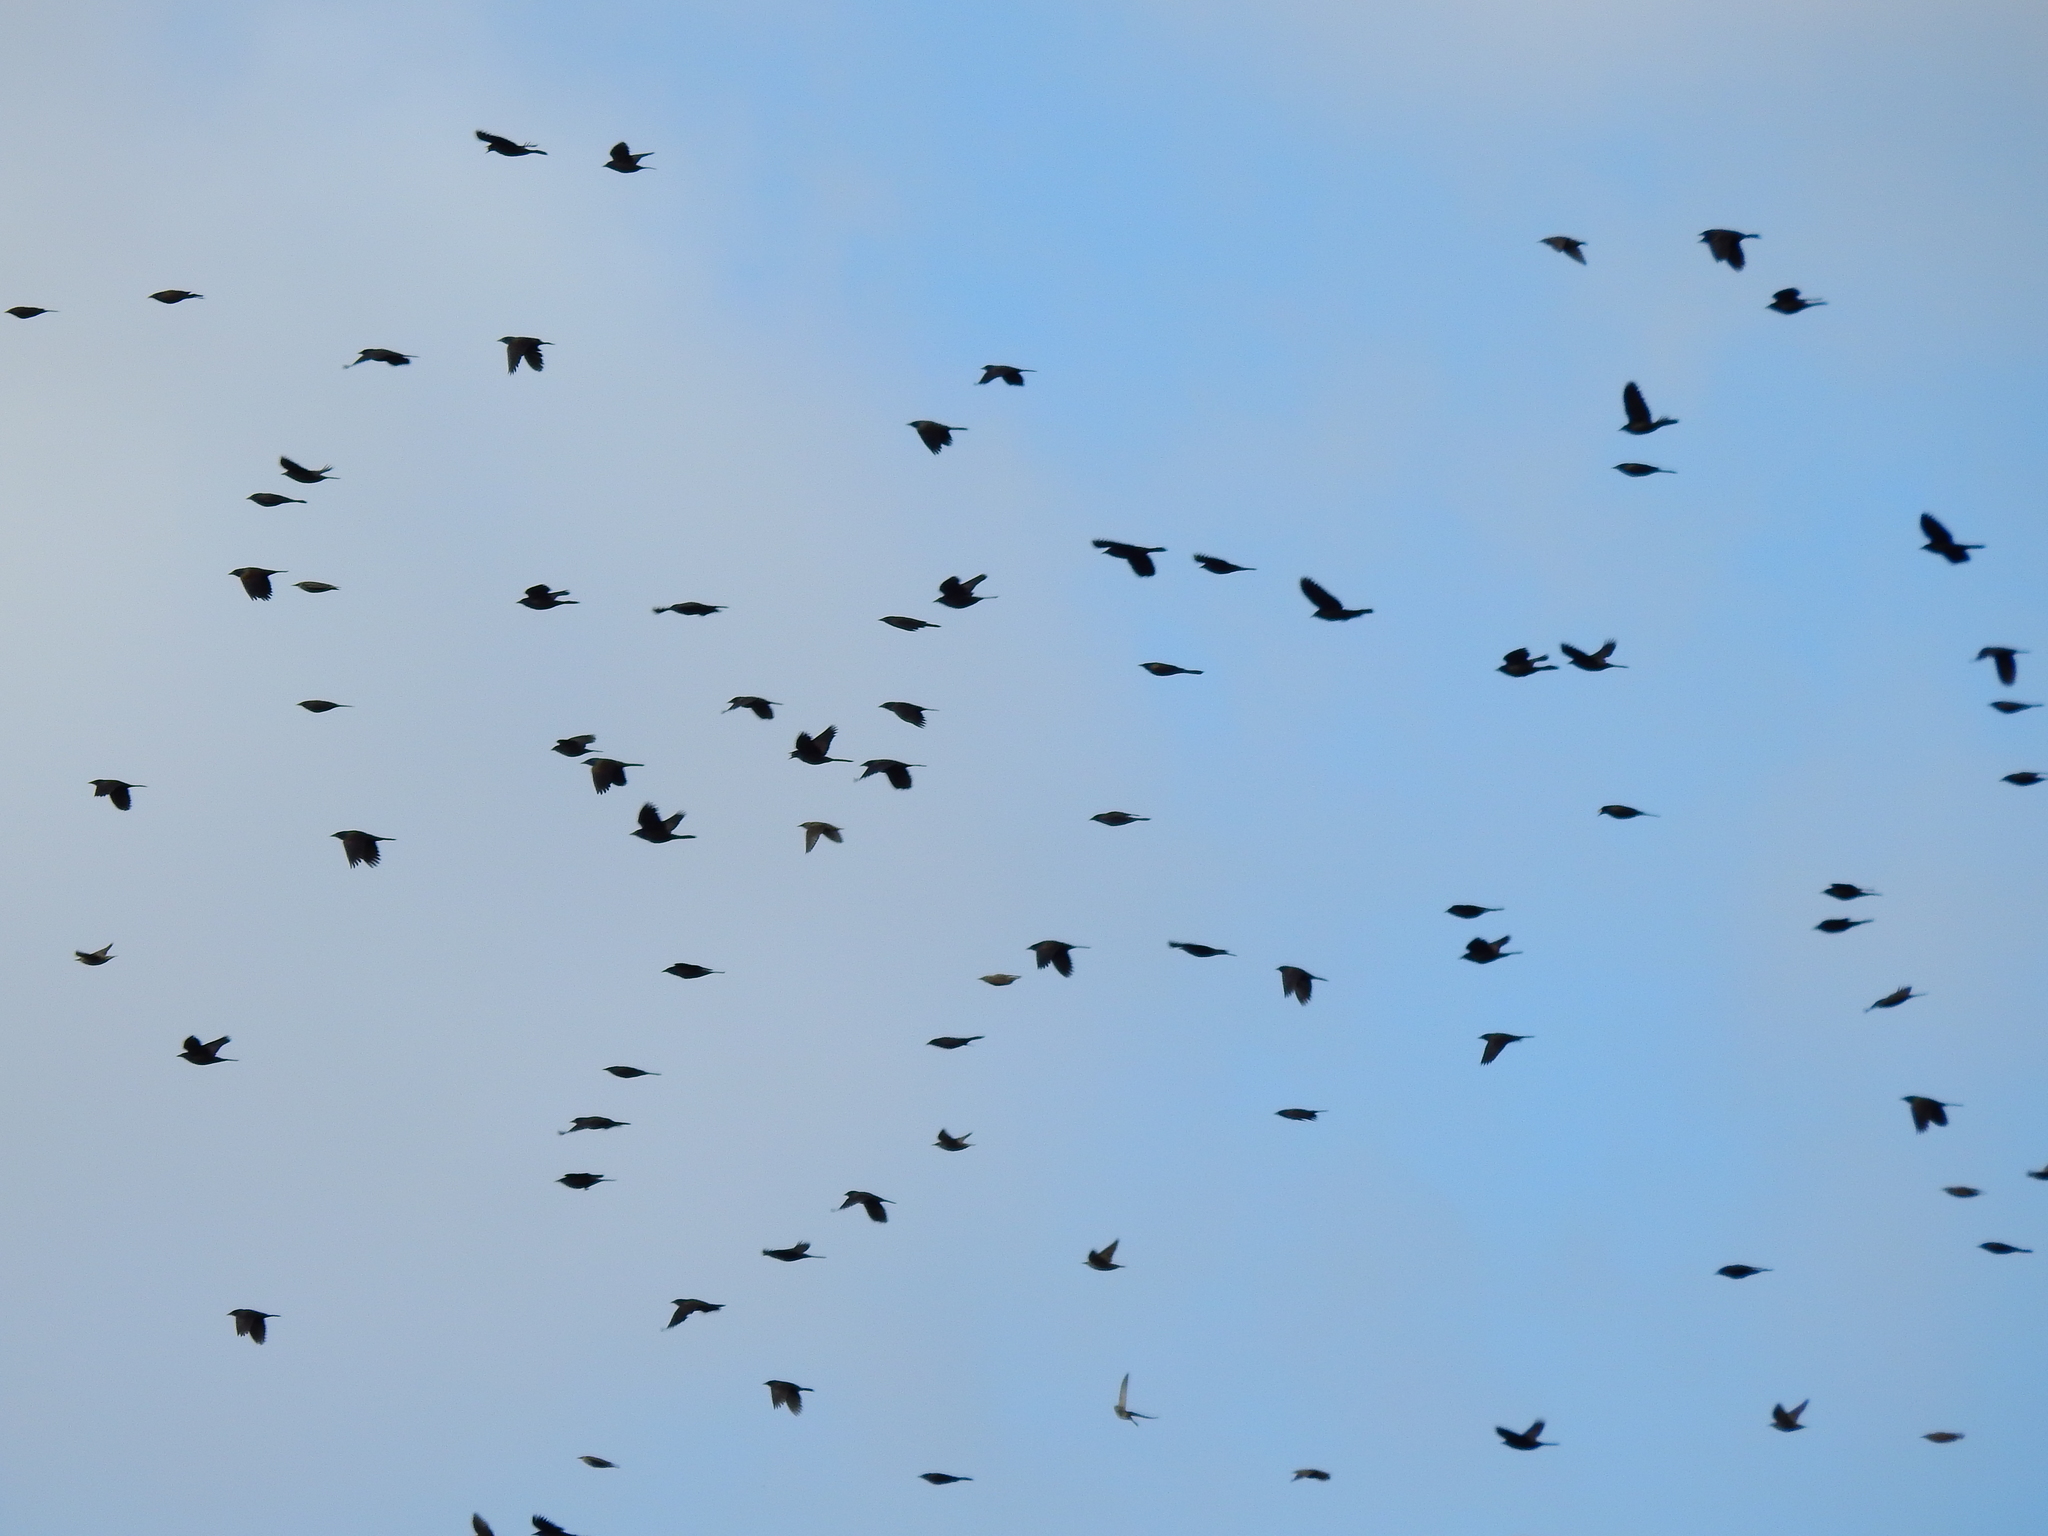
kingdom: Animalia
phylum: Chordata
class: Aves
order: Passeriformes
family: Icteridae
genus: Quiscalus
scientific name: Quiscalus quiscula
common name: Common grackle
